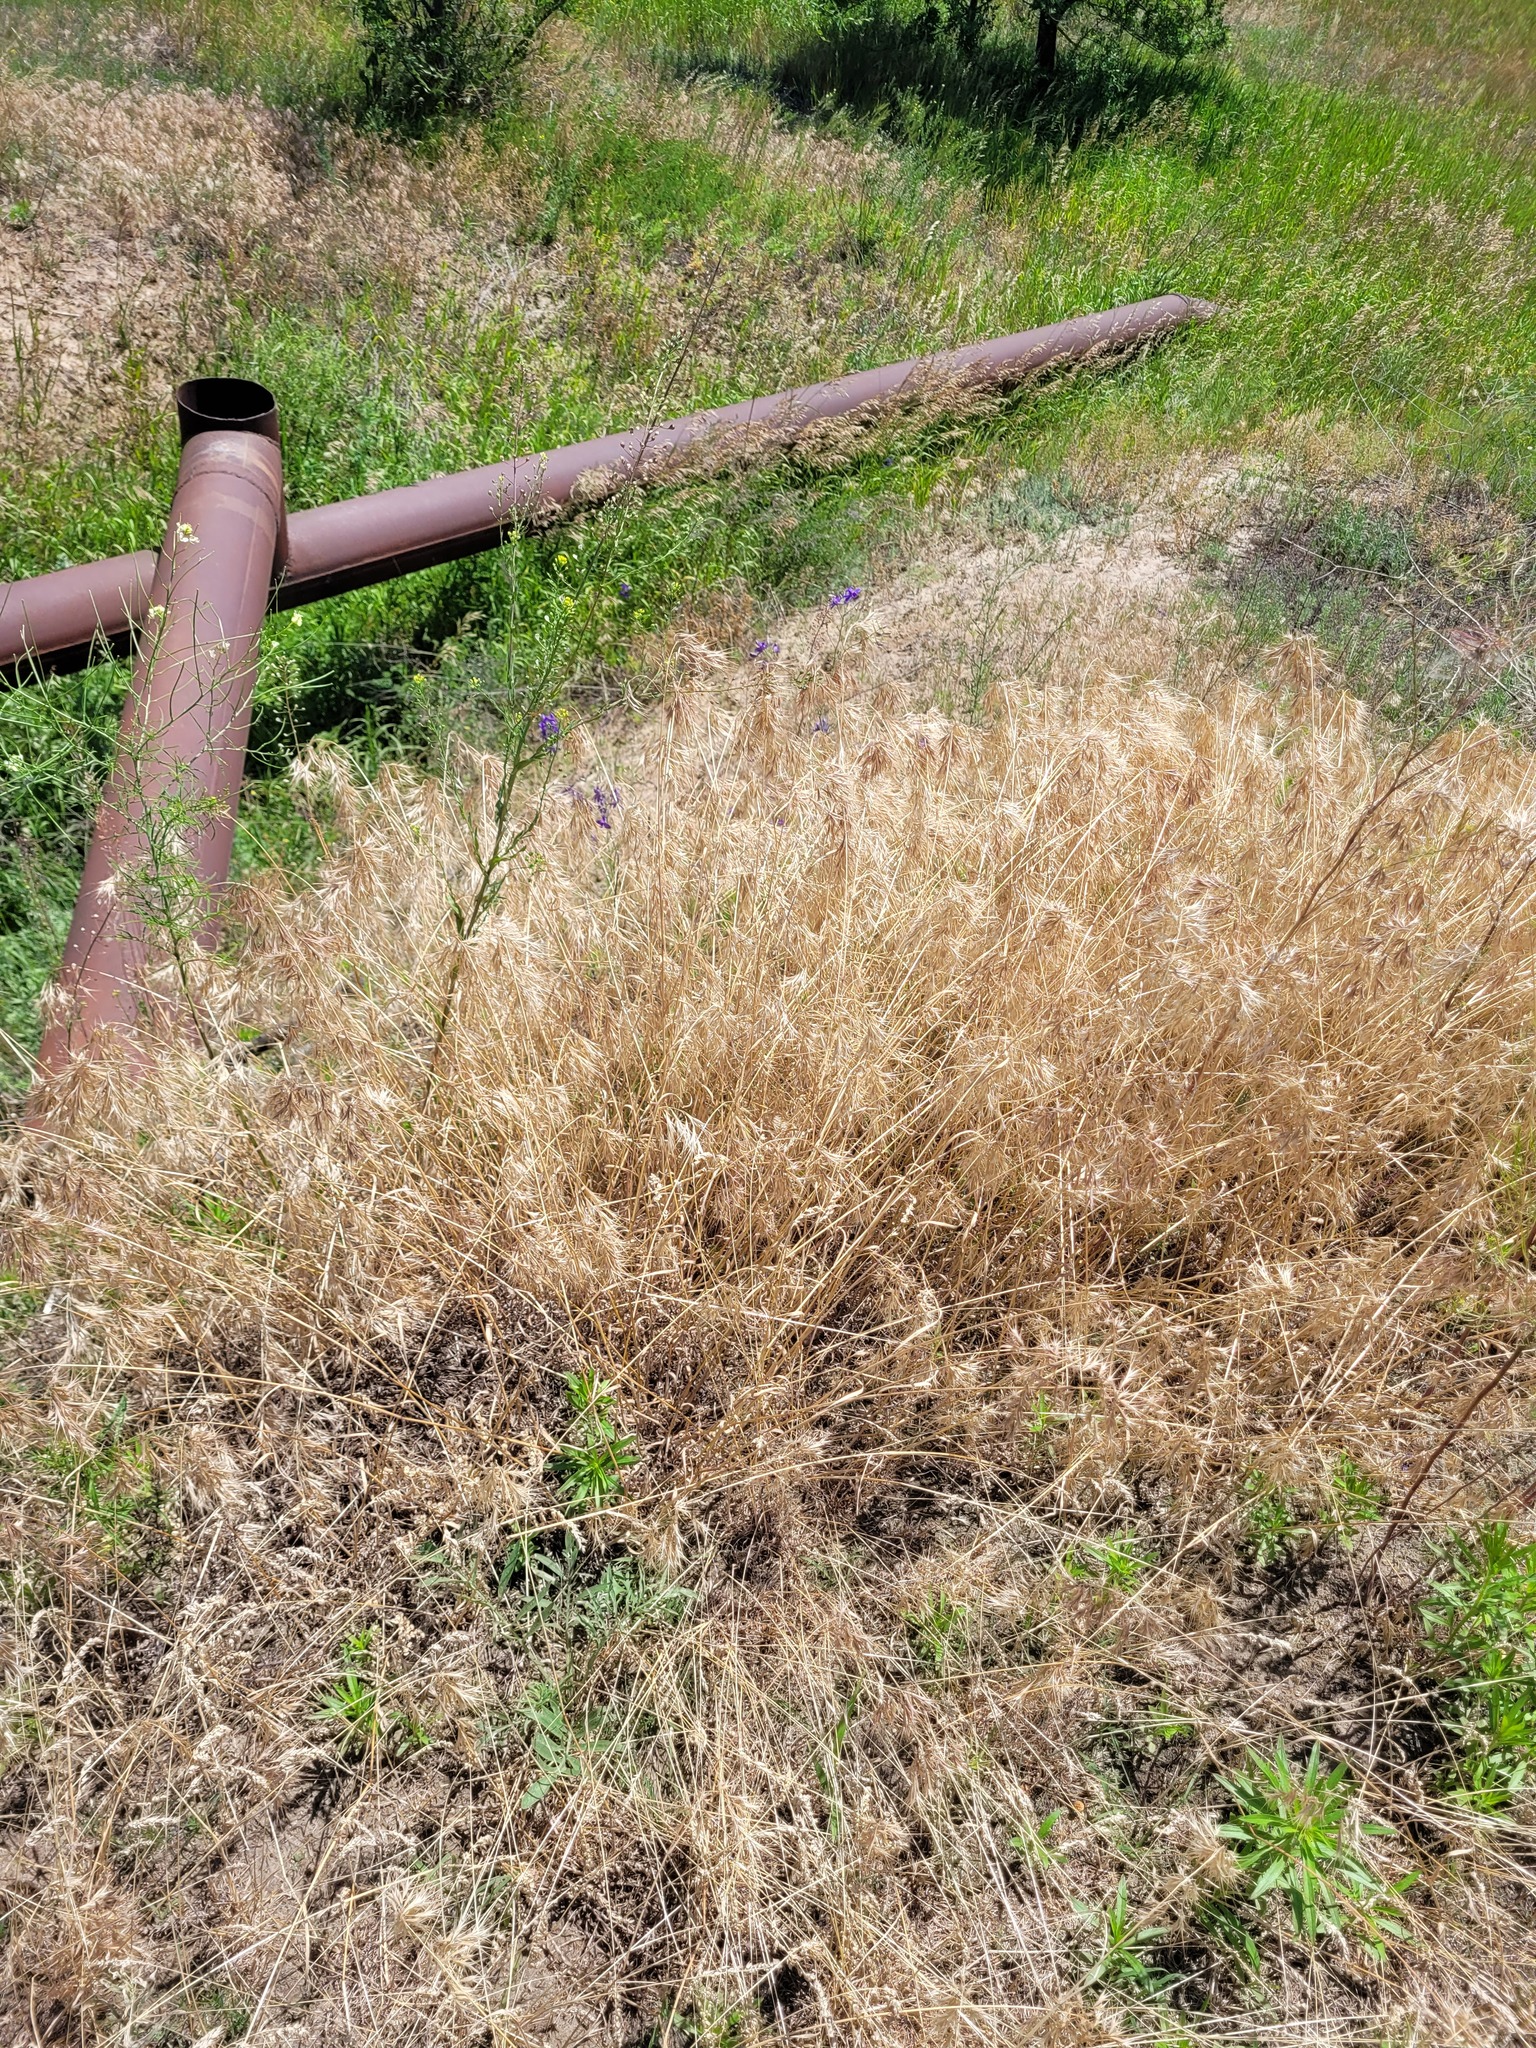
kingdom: Plantae
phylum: Tracheophyta
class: Liliopsida
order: Poales
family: Poaceae
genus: Bromus
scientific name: Bromus tectorum
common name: Cheatgrass
